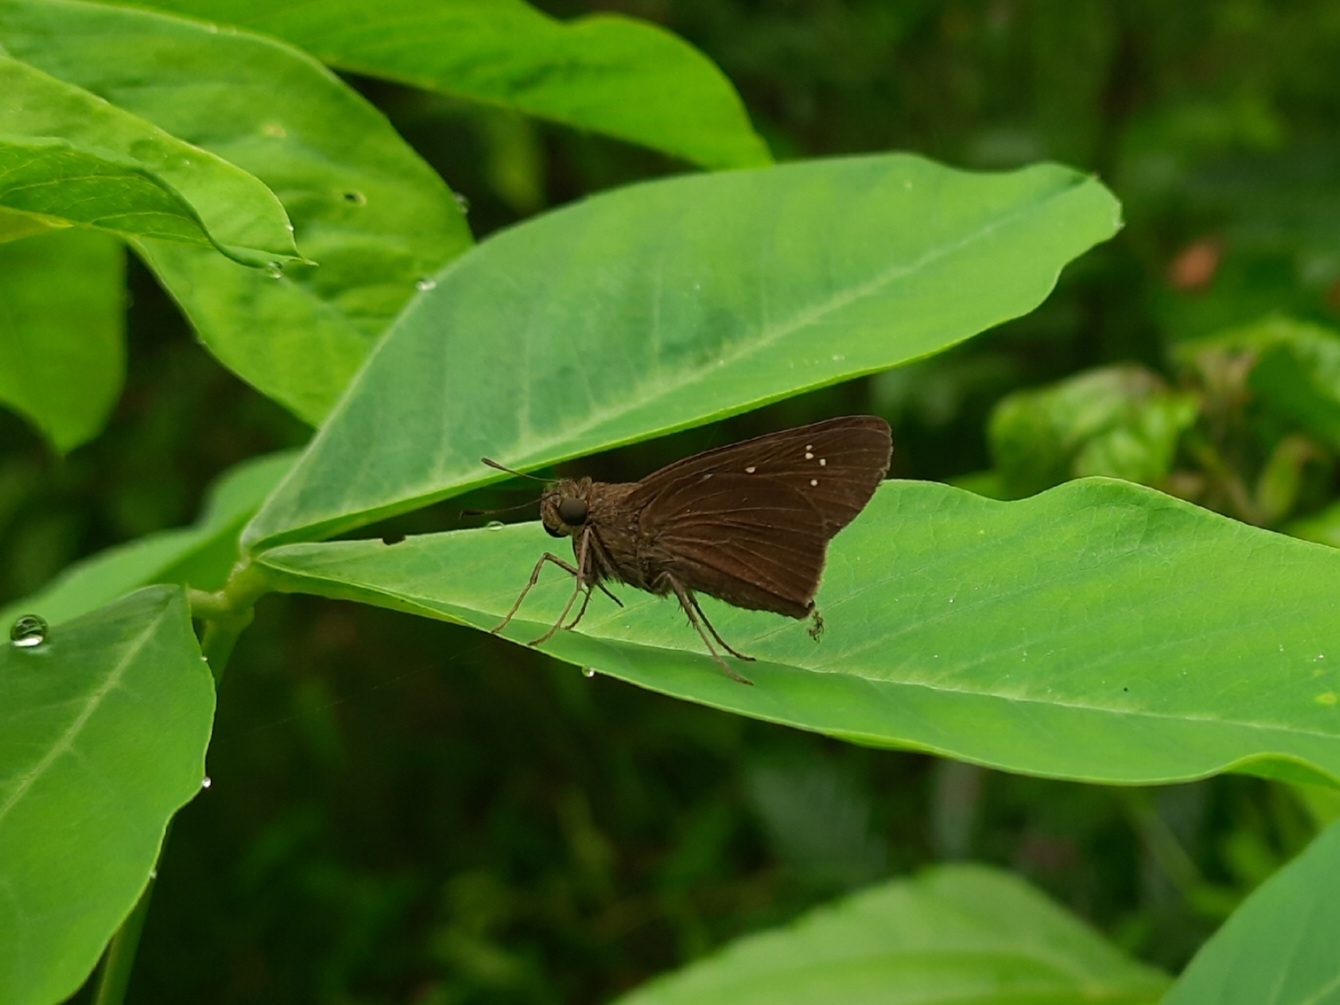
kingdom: Animalia
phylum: Arthropoda
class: Insecta
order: Lepidoptera
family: Hesperiidae
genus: Baoris
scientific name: Baoris farri
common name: Paintbrush swift
